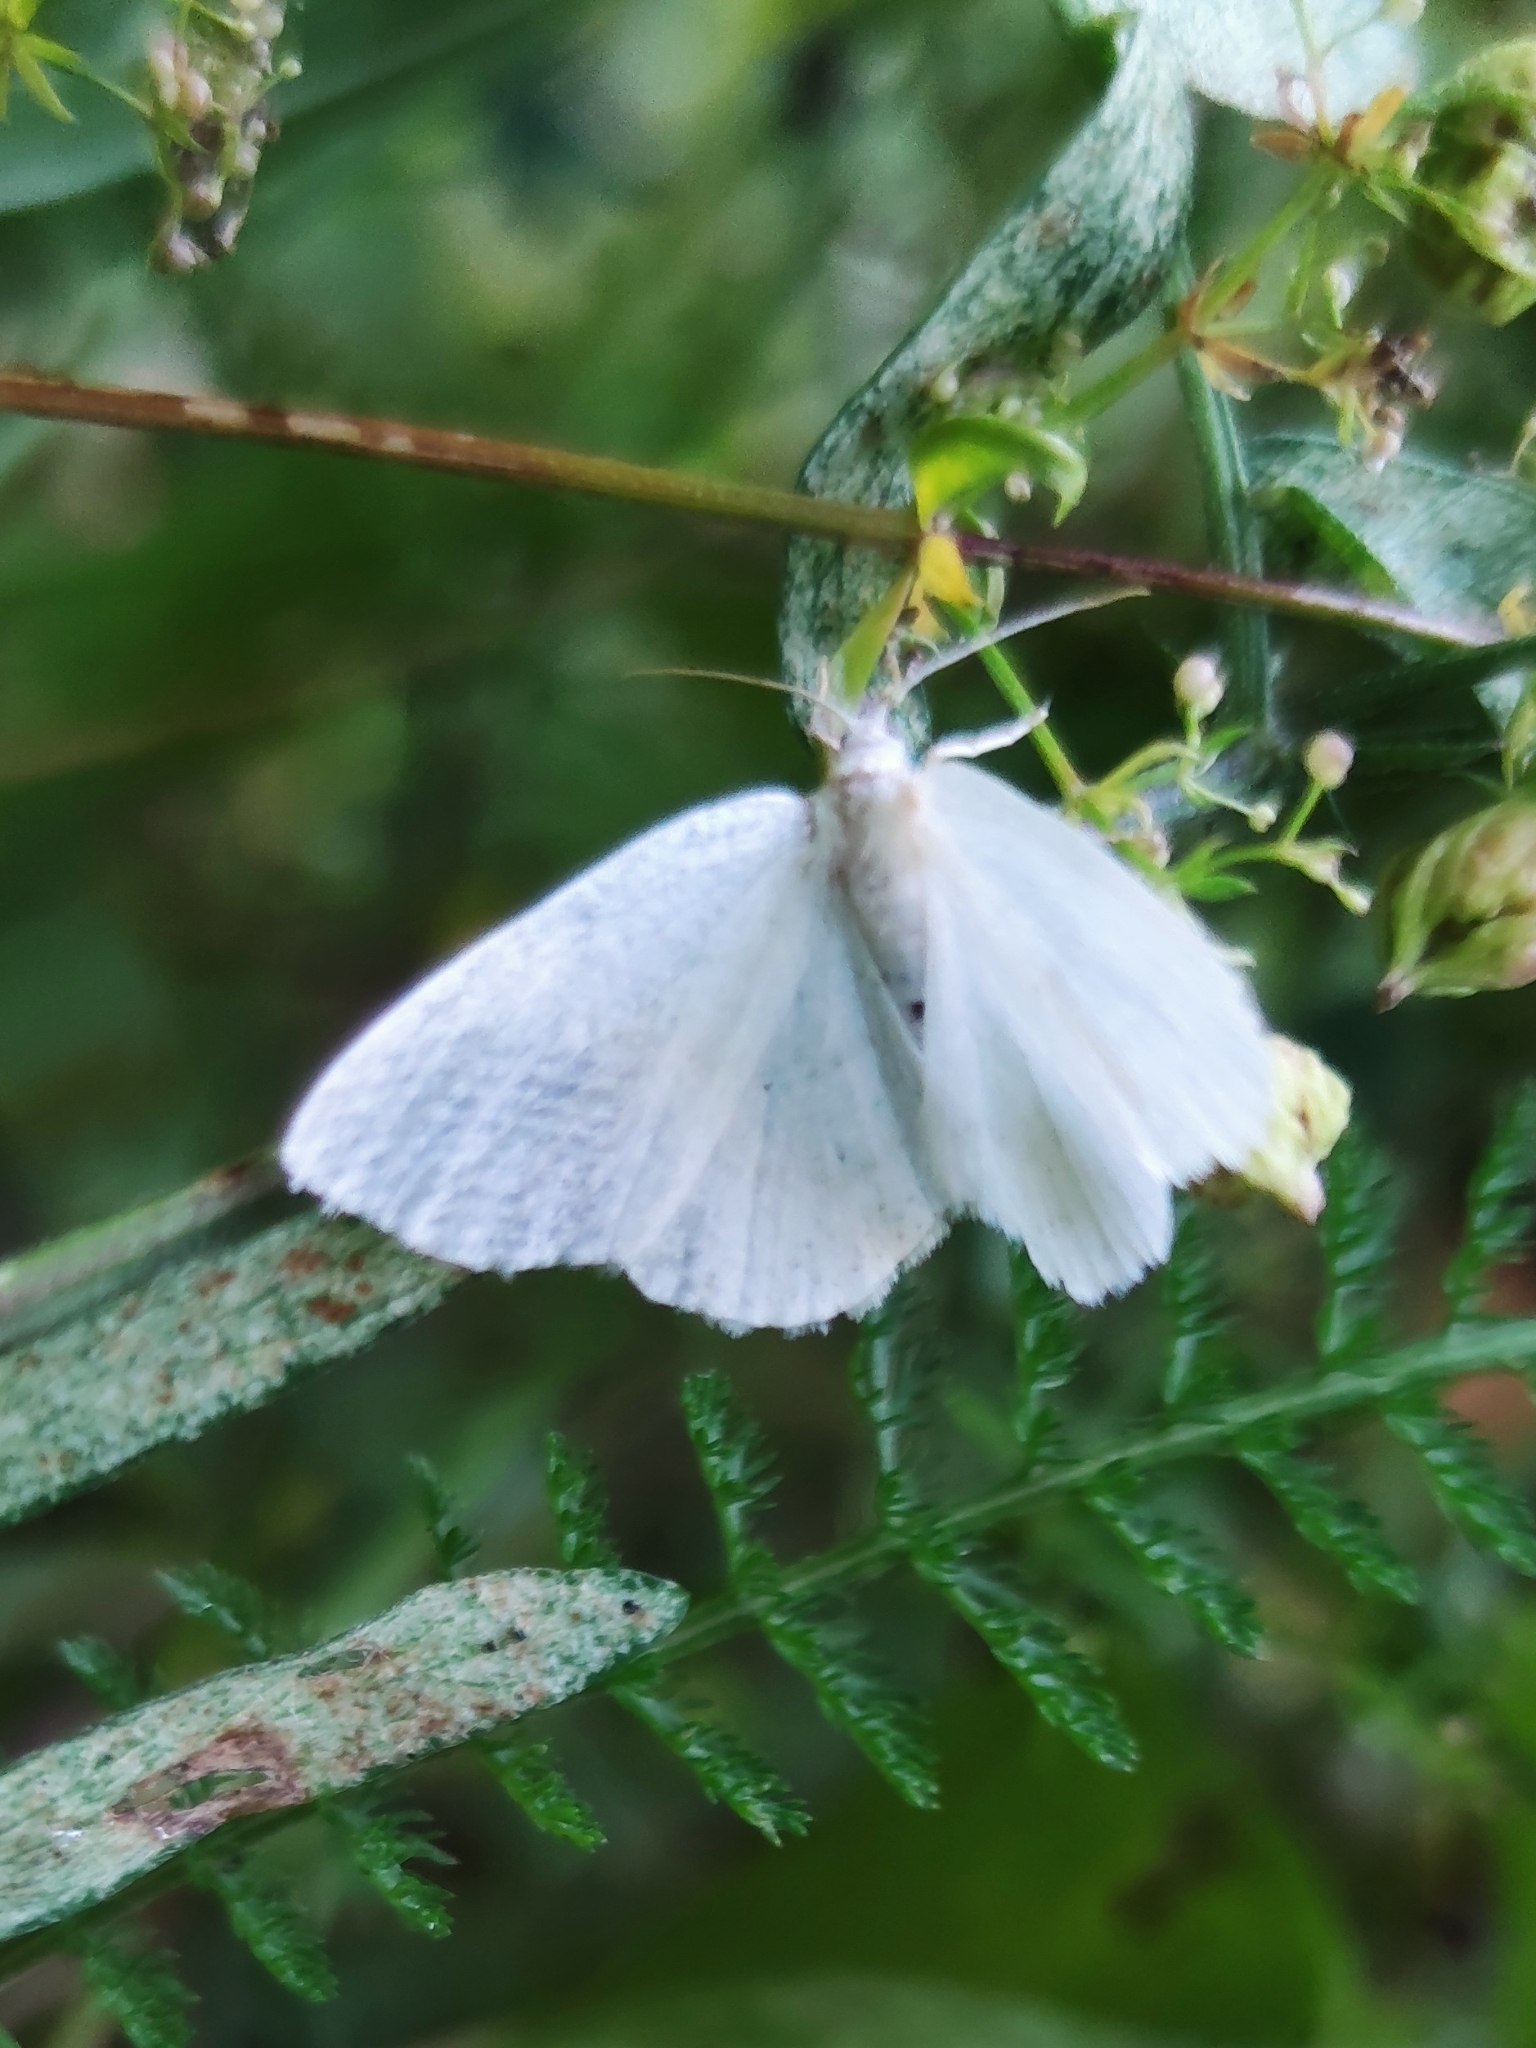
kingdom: Animalia
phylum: Arthropoda
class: Insecta
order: Lepidoptera
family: Geometridae
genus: Cabera
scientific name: Cabera pusaria
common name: Common white wave
